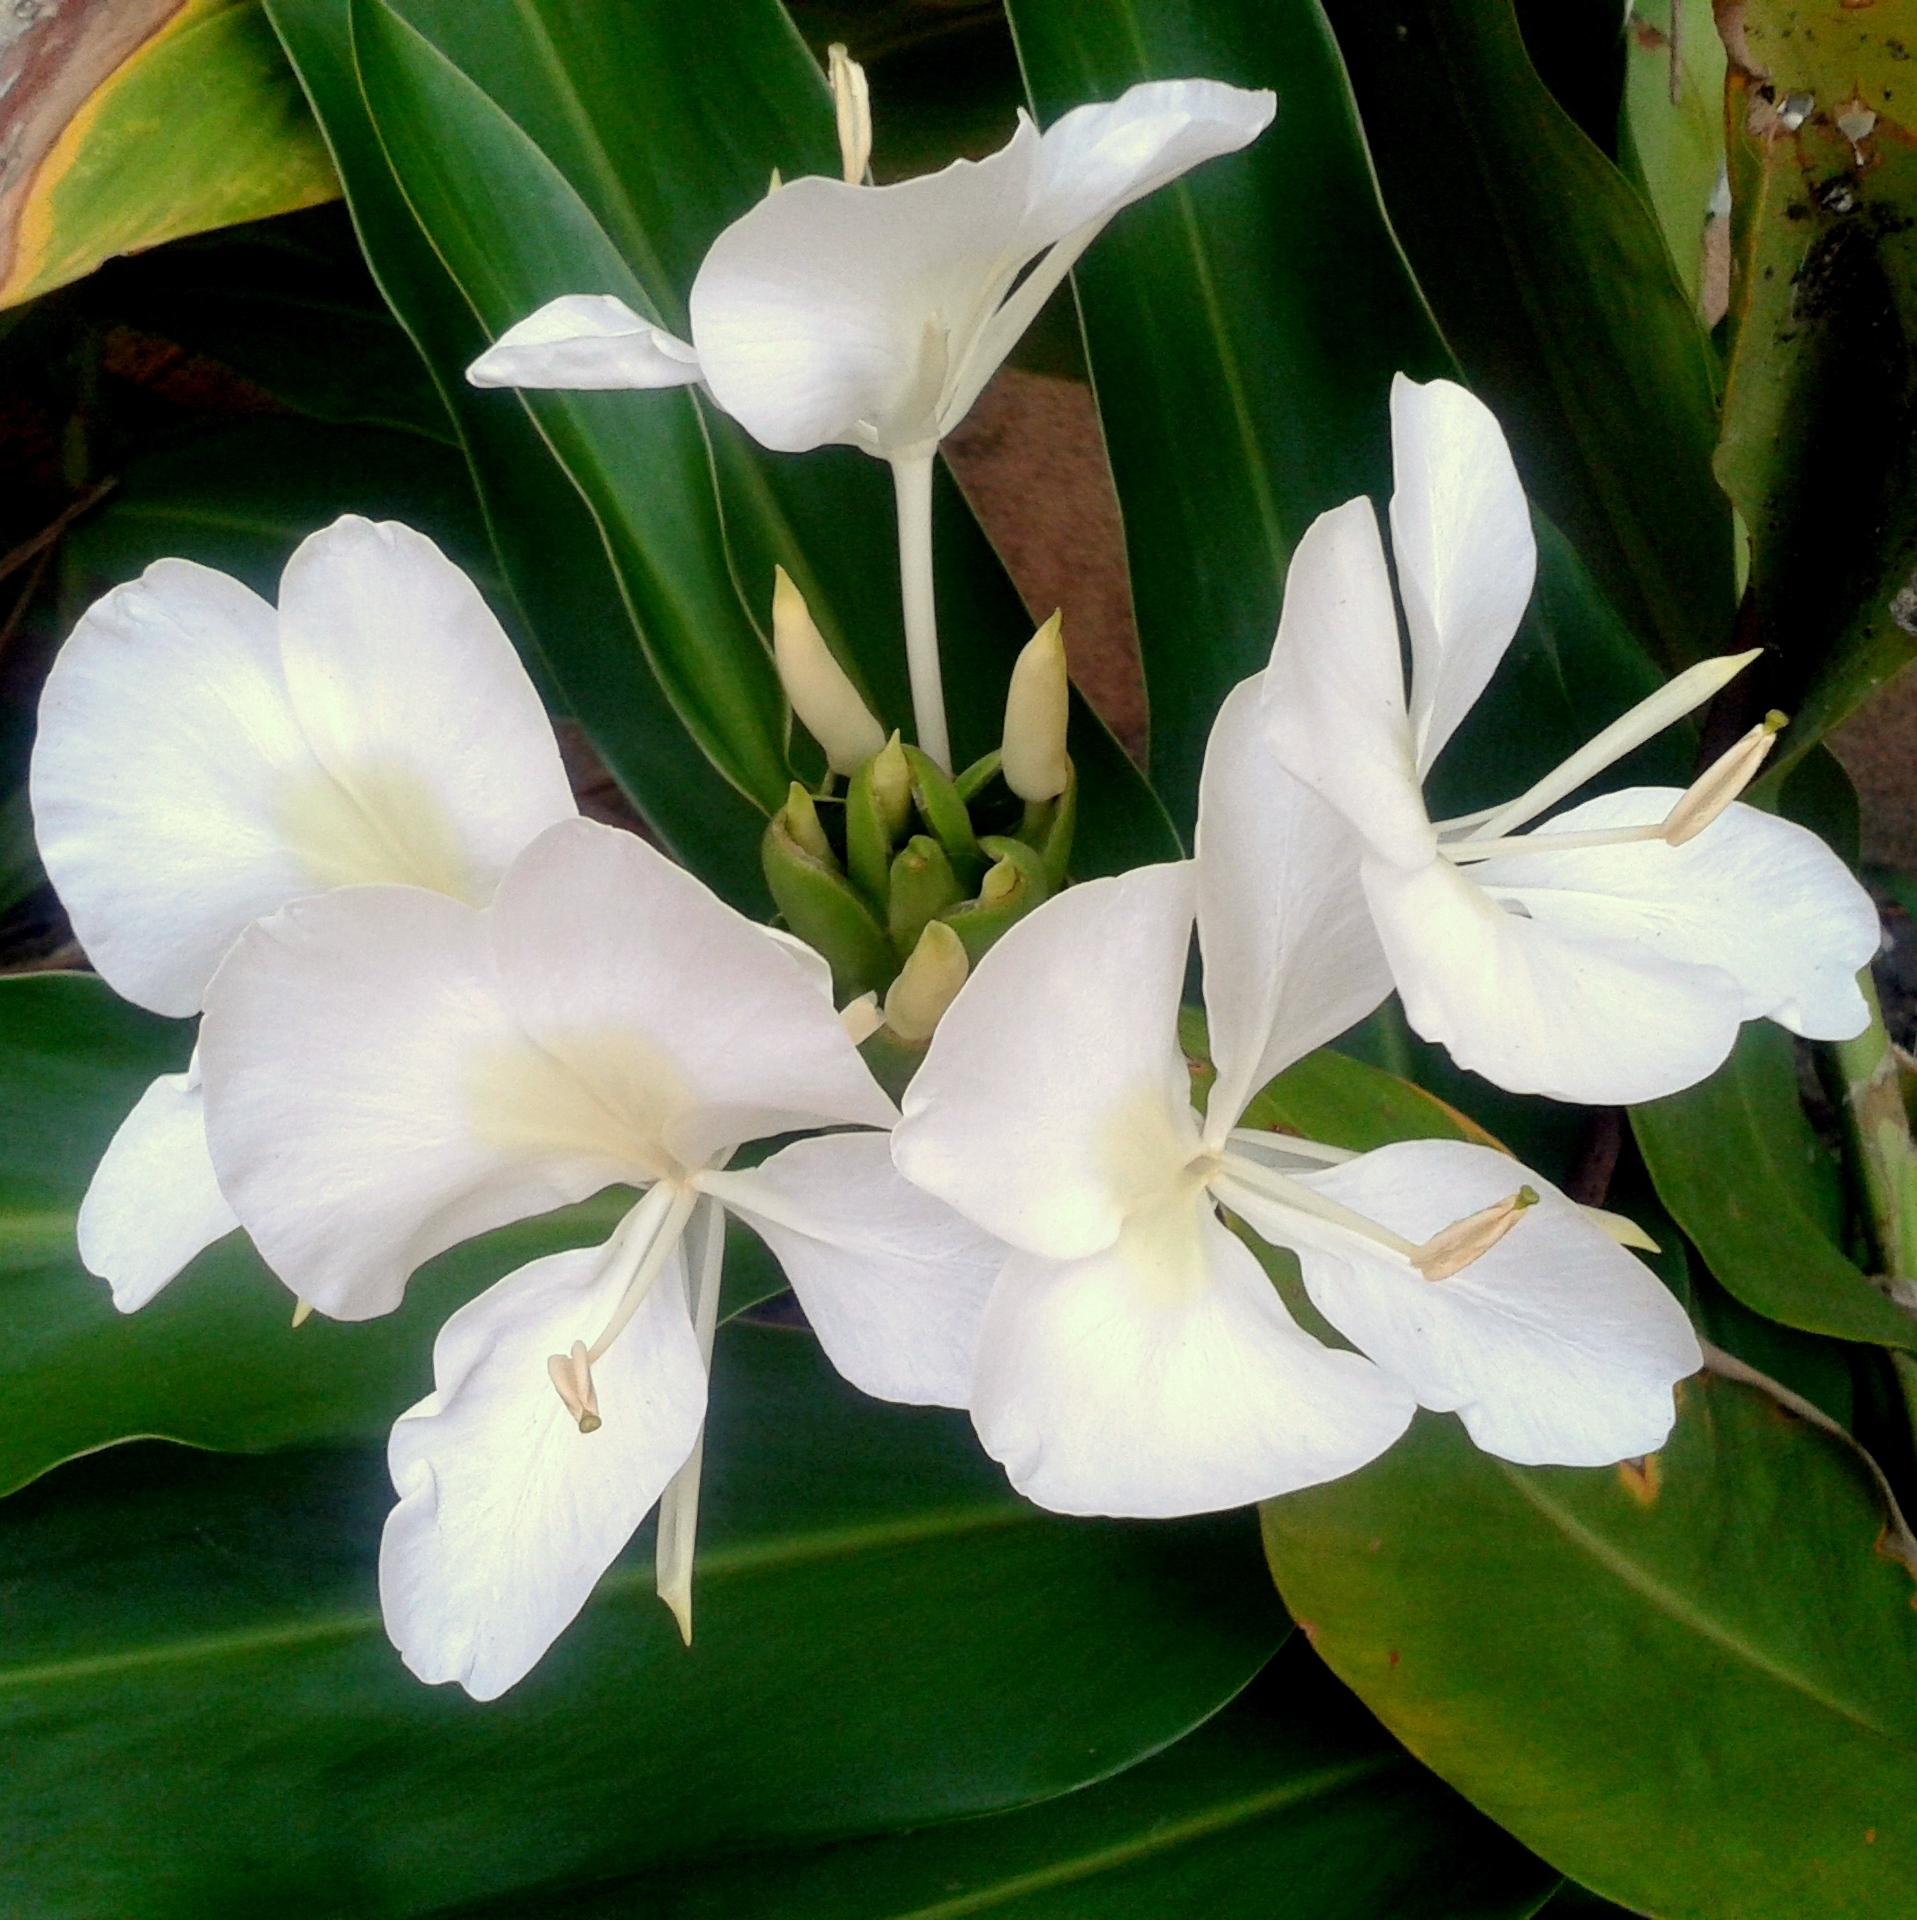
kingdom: Plantae
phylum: Tracheophyta
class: Liliopsida
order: Zingiberales
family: Zingiberaceae
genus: Hedychium
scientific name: Hedychium coronarium
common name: White garland-lily
